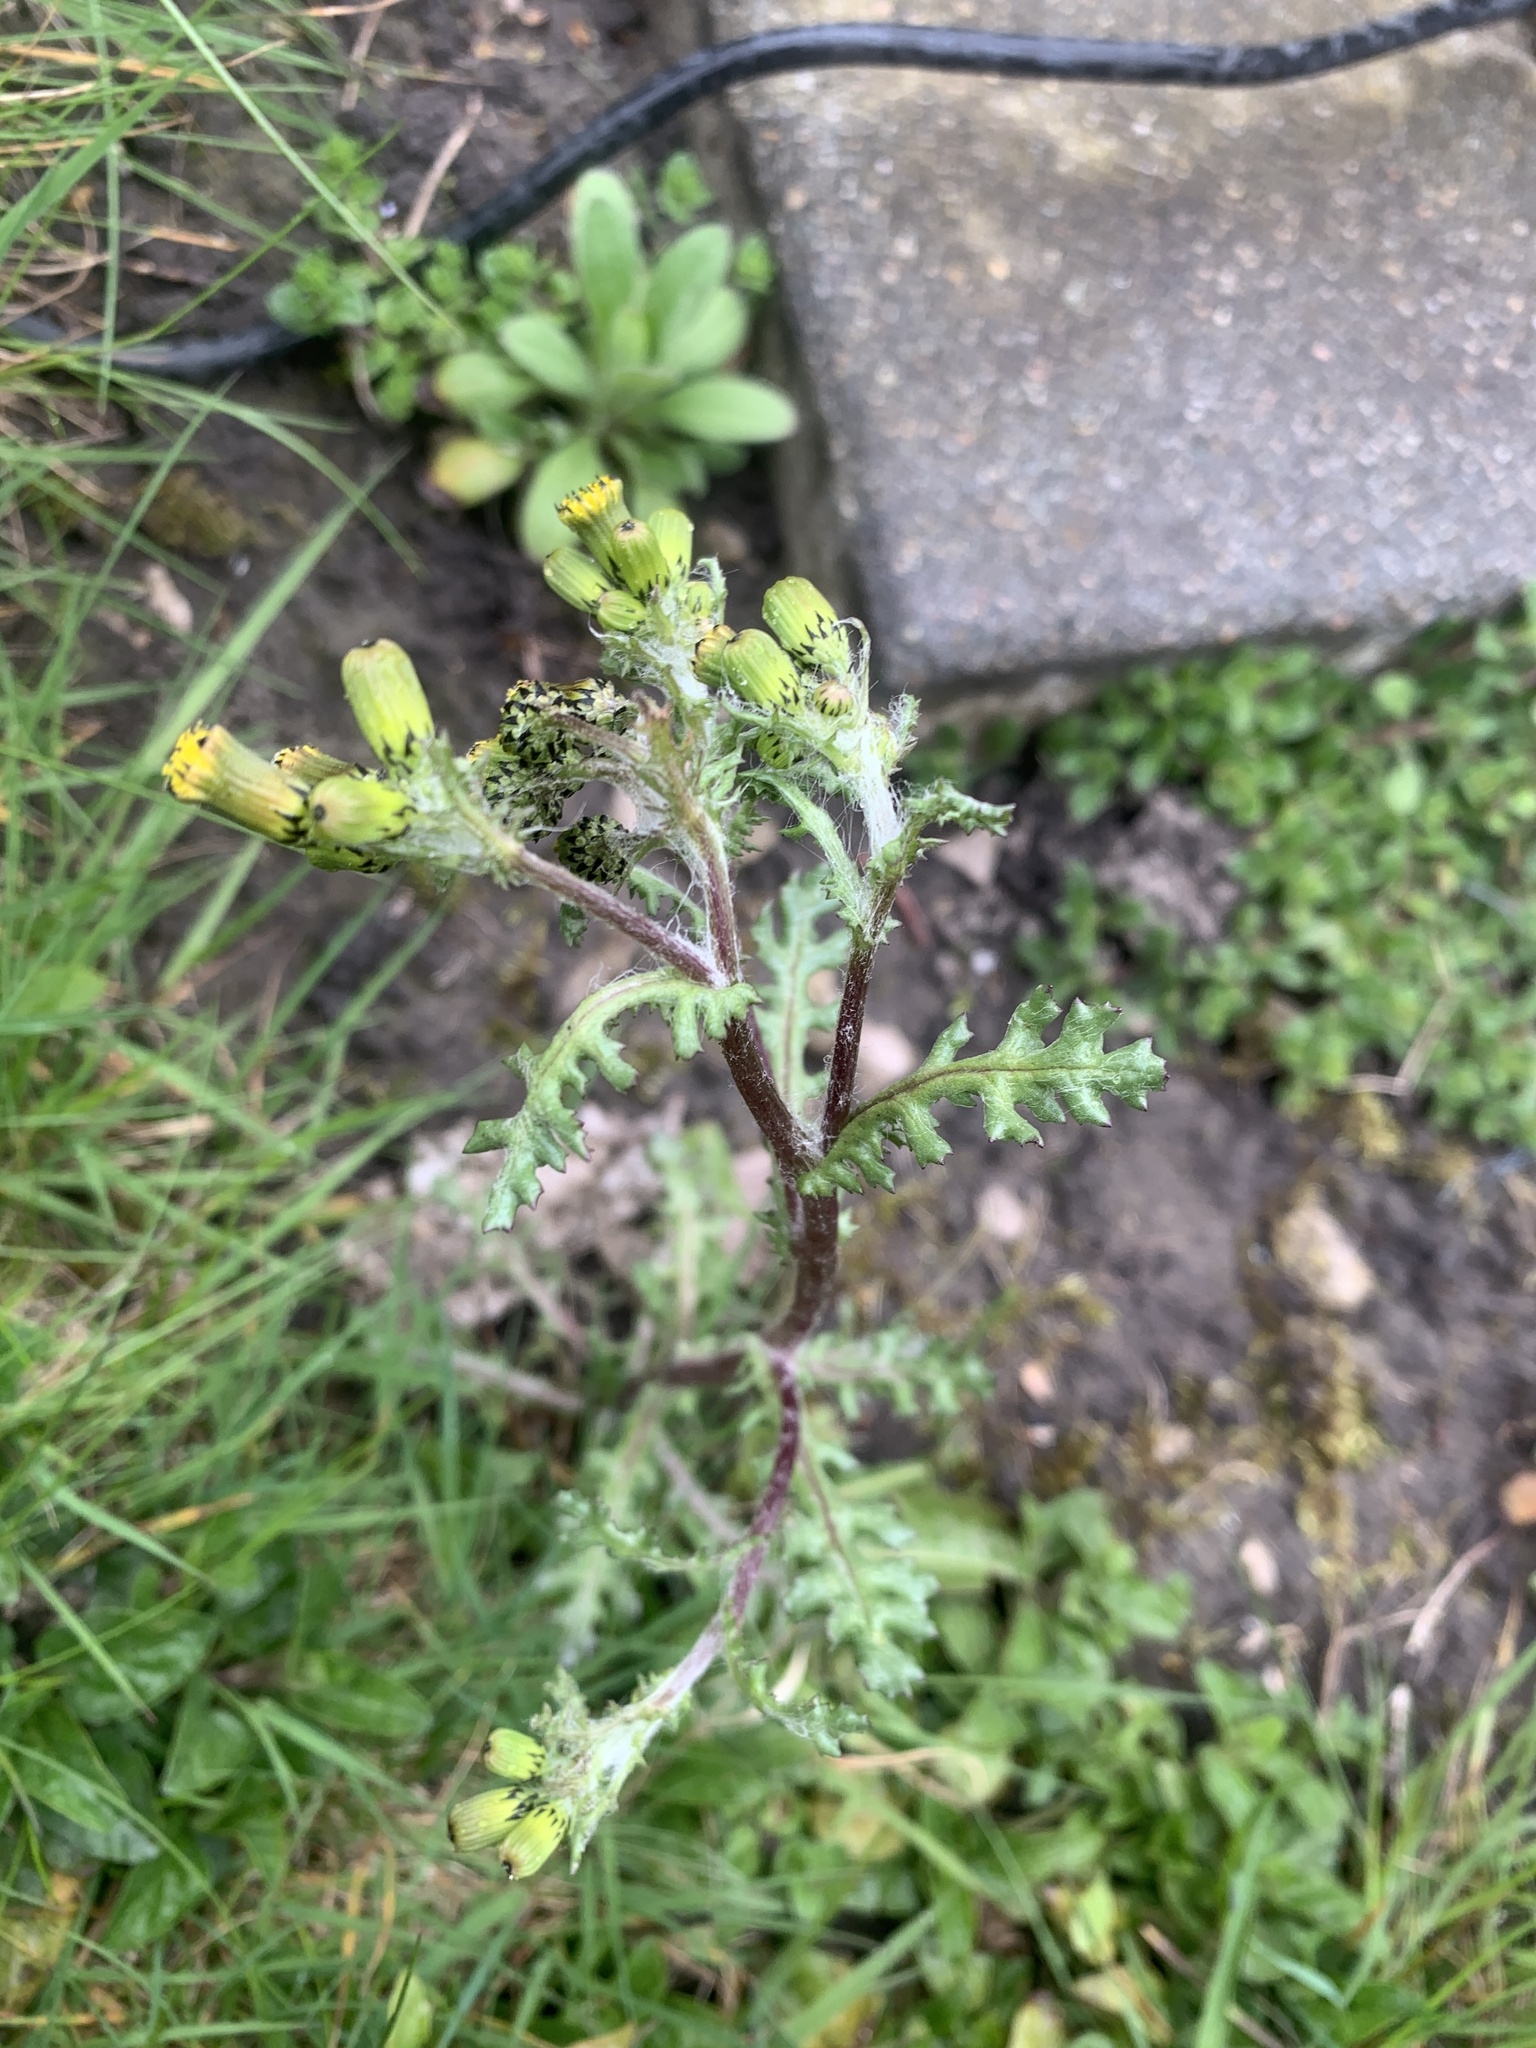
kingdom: Plantae
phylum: Tracheophyta
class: Magnoliopsida
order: Asterales
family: Asteraceae
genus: Senecio
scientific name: Senecio vulgaris
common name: Old-man-in-the-spring
